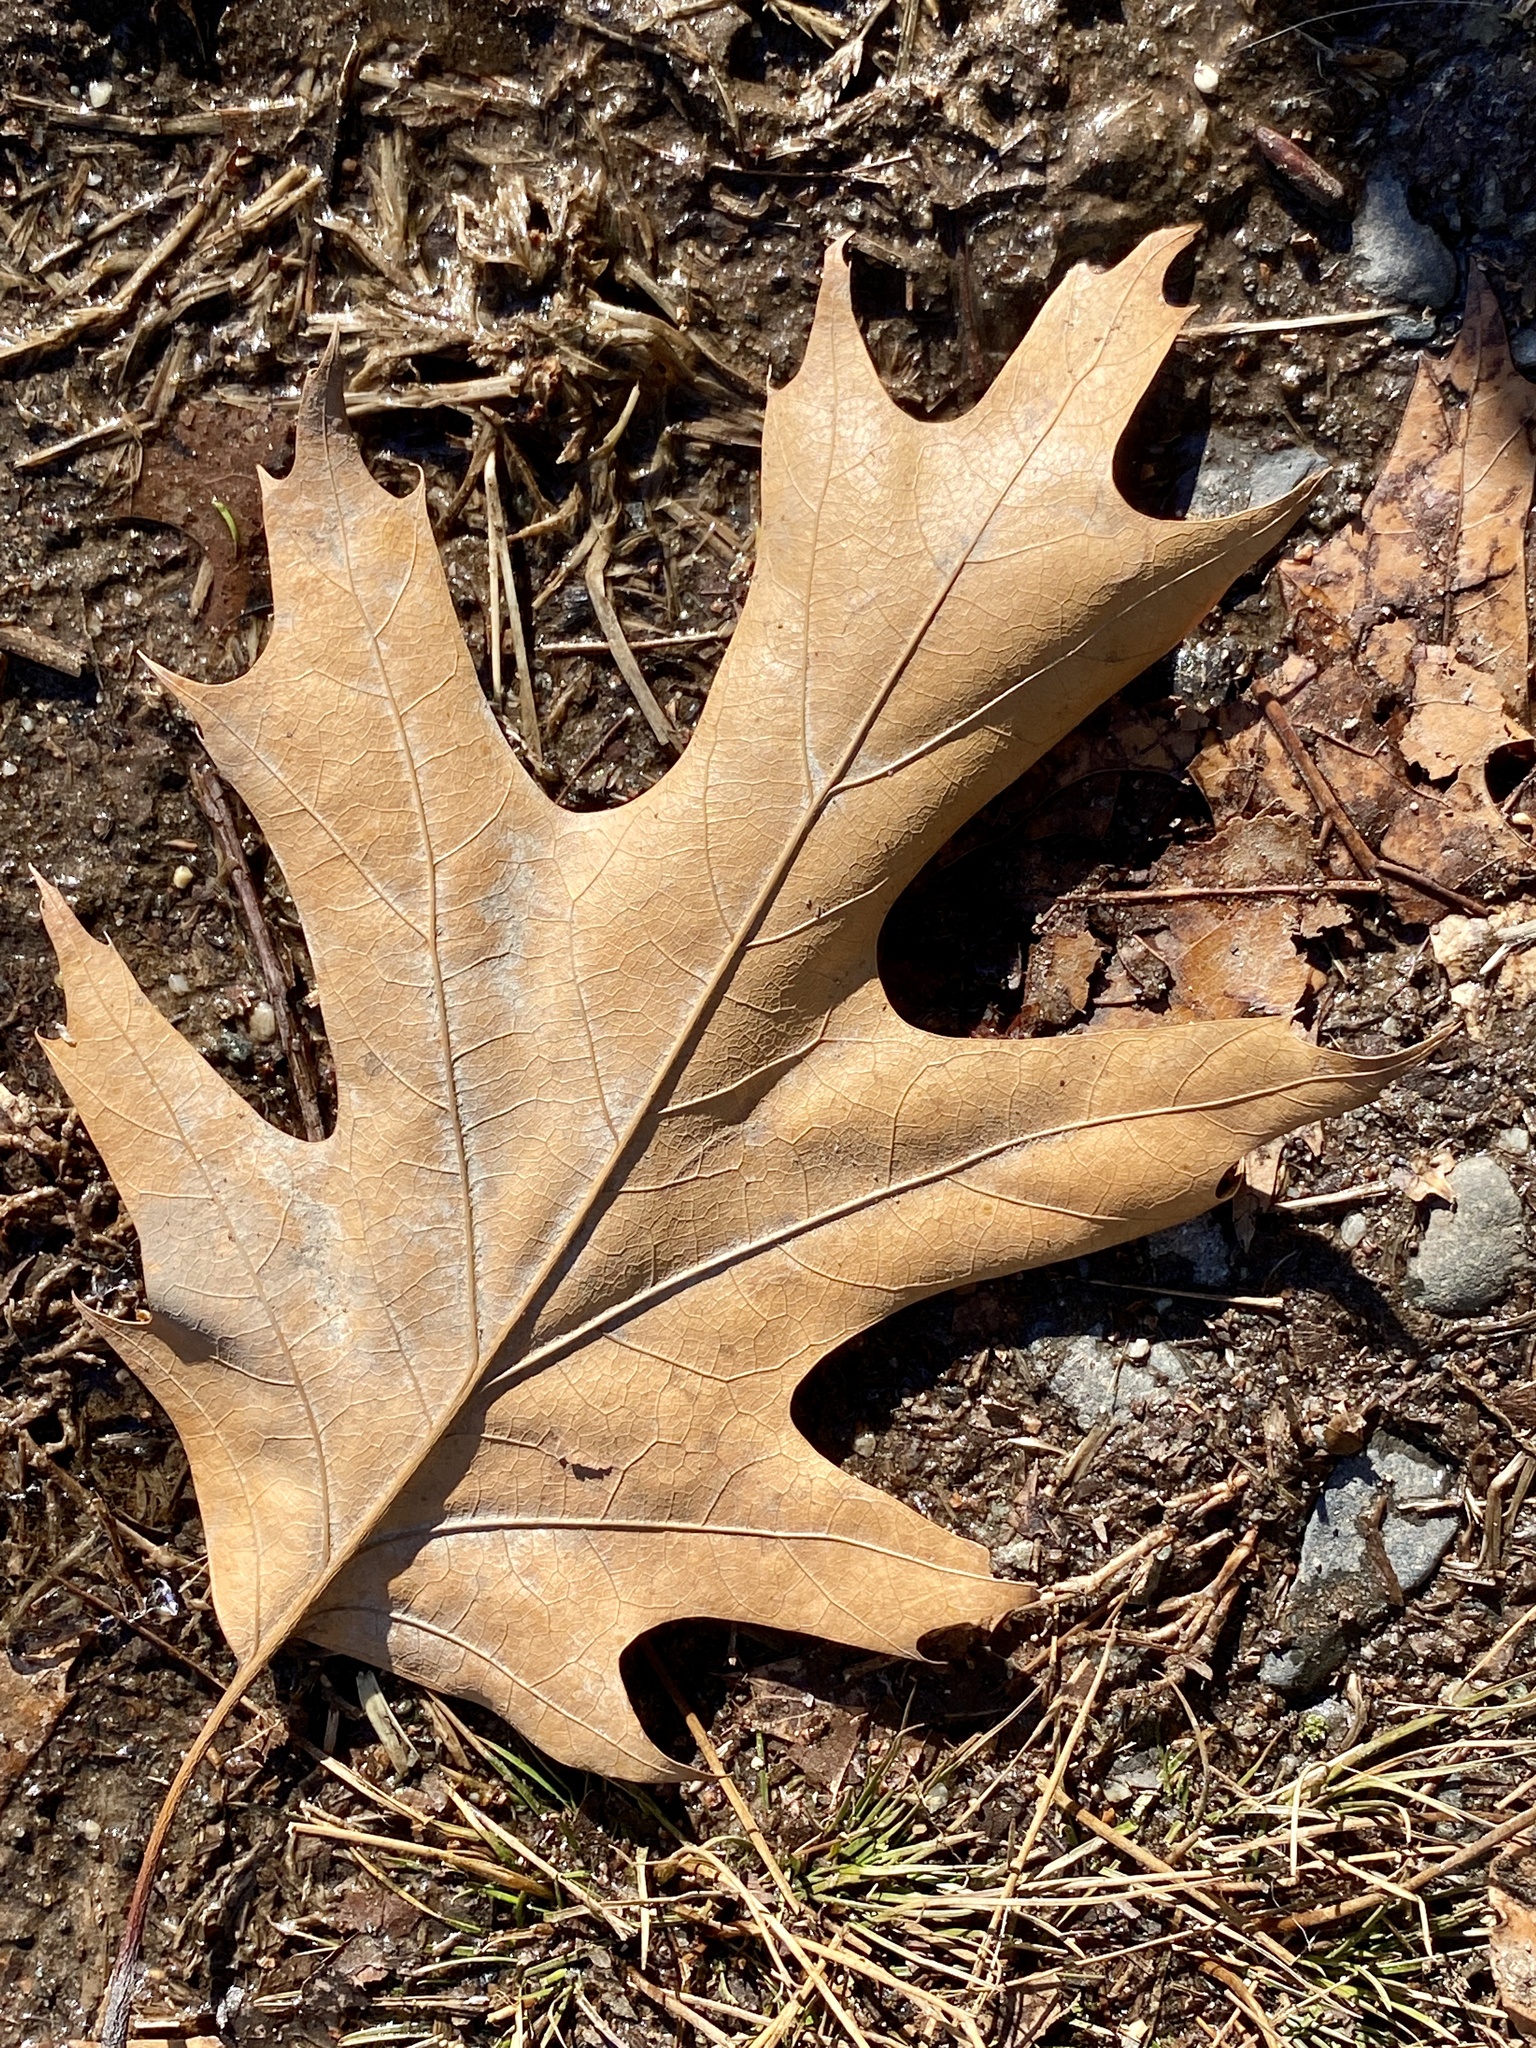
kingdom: Plantae
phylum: Tracheophyta
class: Magnoliopsida
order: Fagales
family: Fagaceae
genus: Quercus
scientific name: Quercus rubra
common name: Red oak
